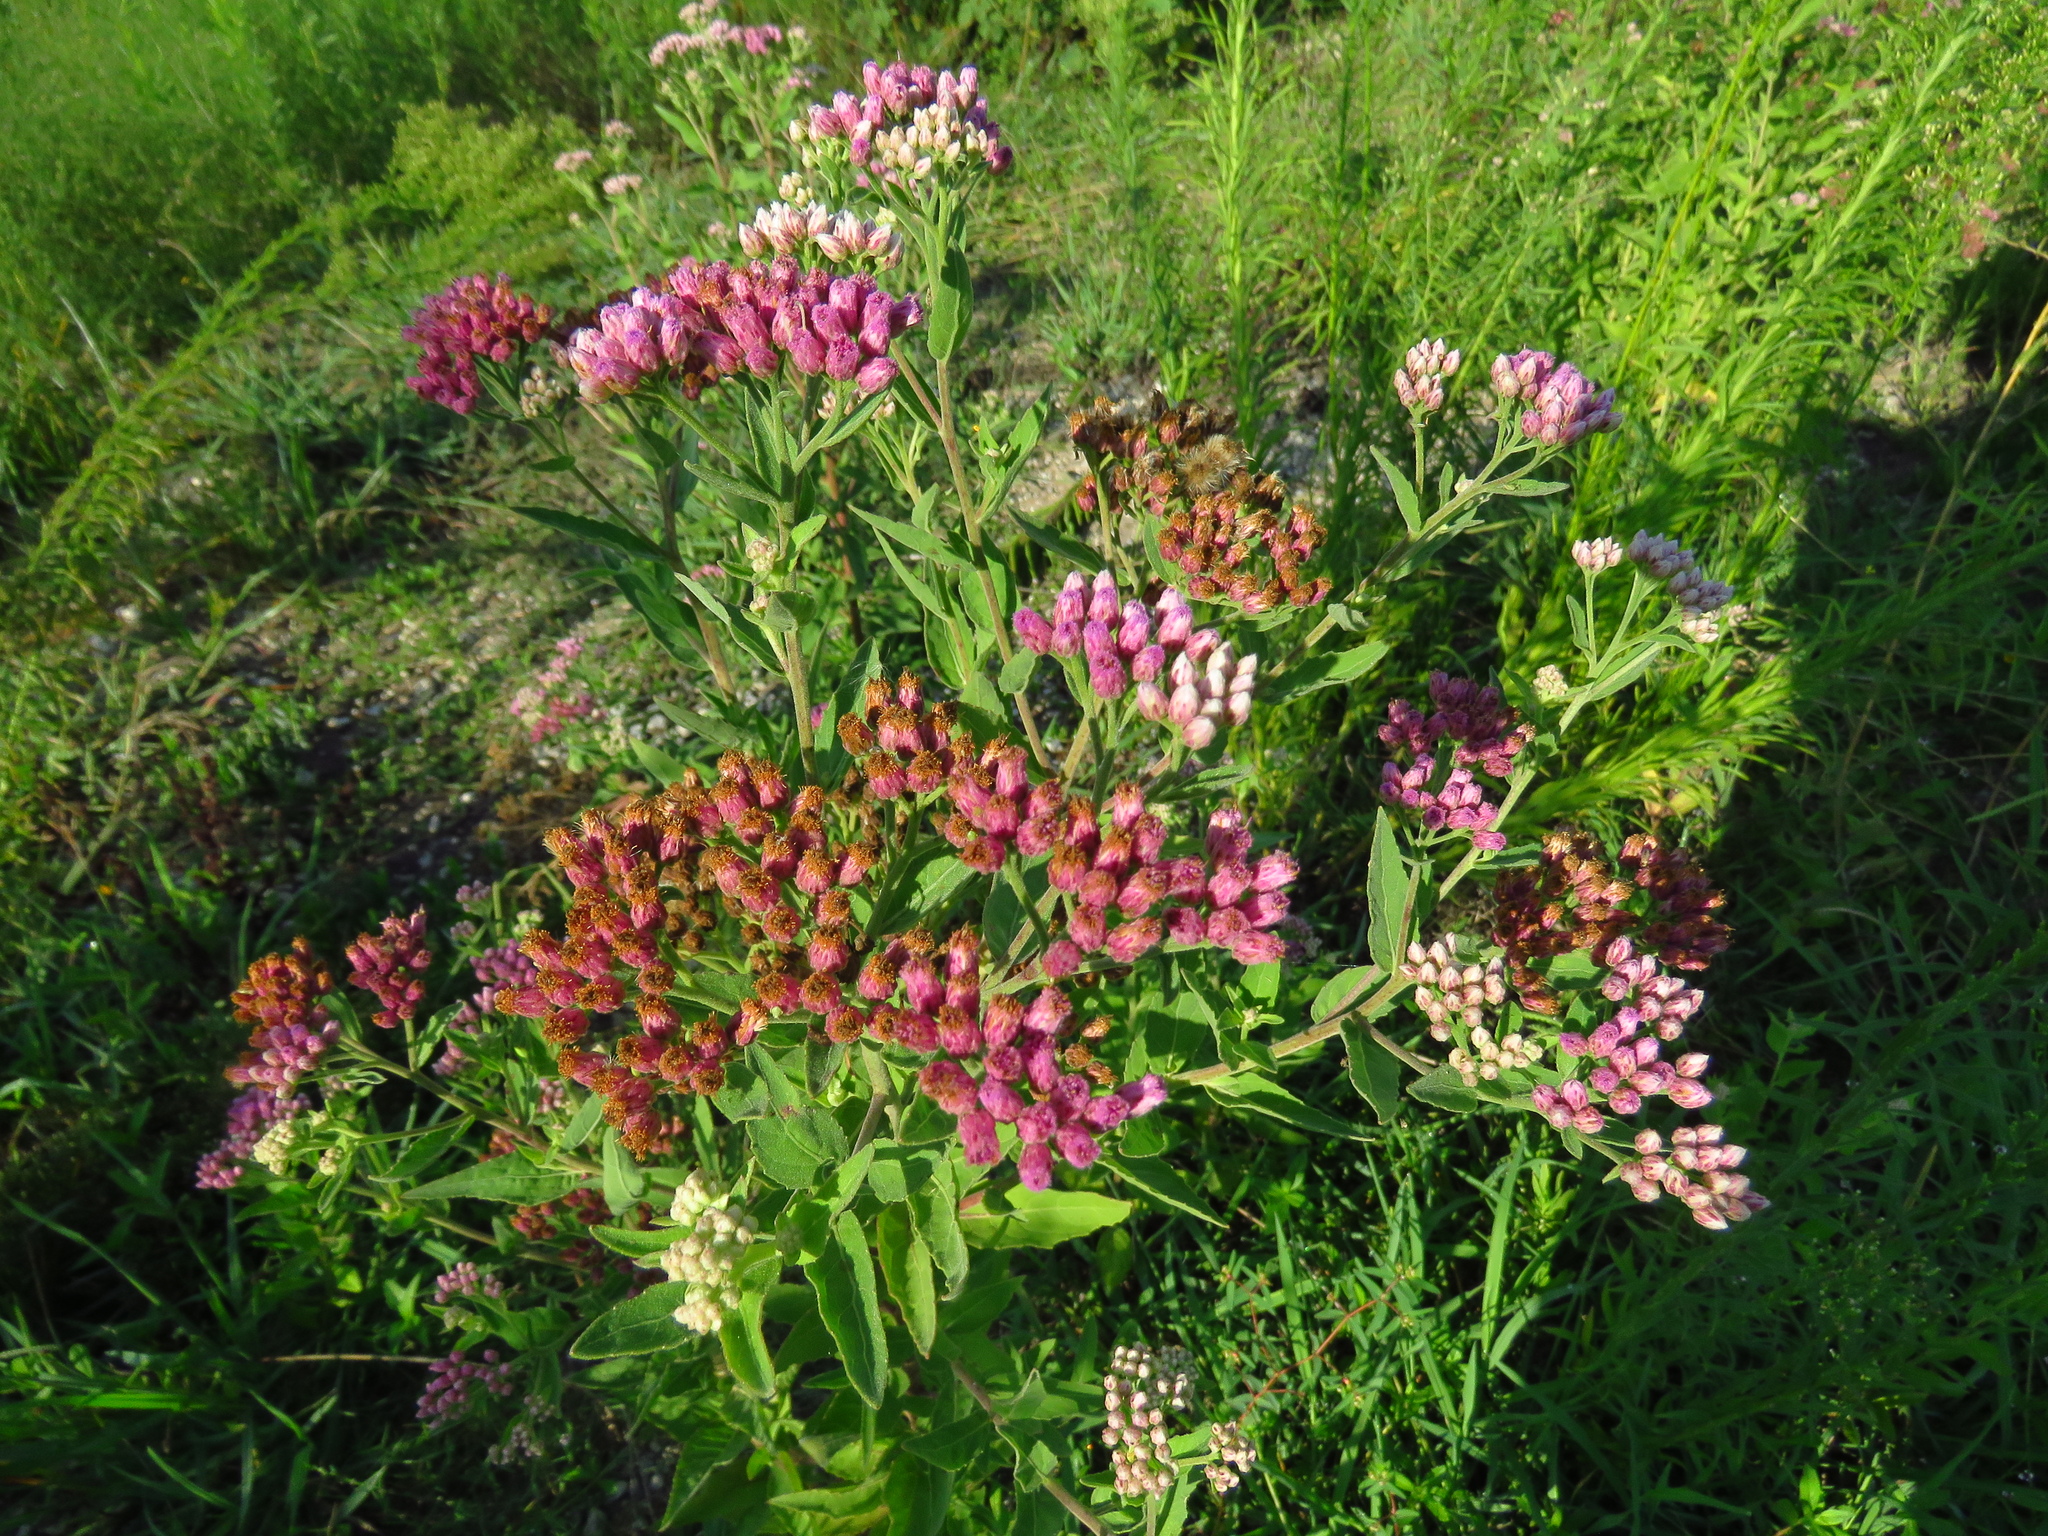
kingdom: Plantae
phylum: Tracheophyta
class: Magnoliopsida
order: Asterales
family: Asteraceae
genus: Pluchea
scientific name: Pluchea odorata
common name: Saltmarsh fleabane
